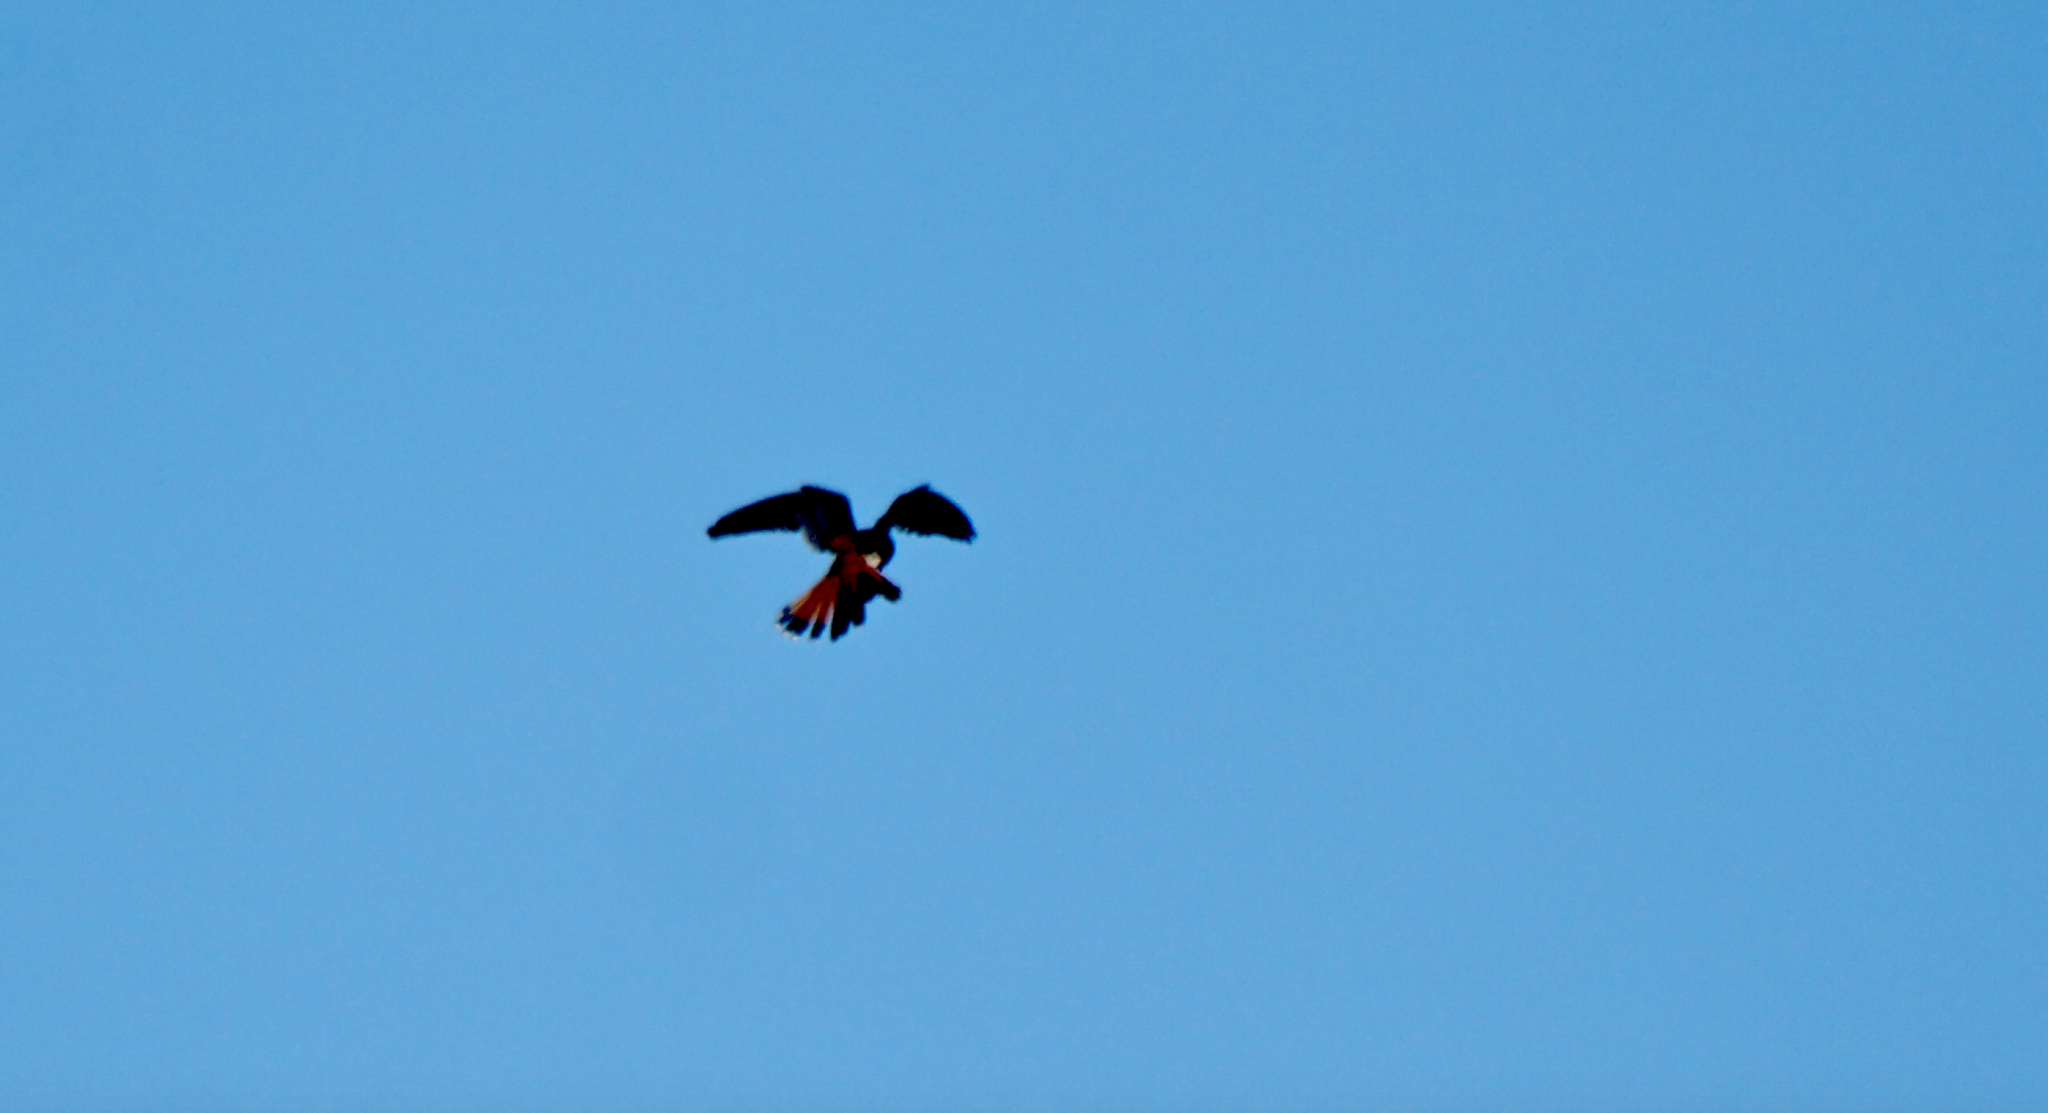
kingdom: Animalia
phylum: Chordata
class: Aves
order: Falconiformes
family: Falconidae
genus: Falco
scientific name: Falco sparverius
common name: American kestrel
